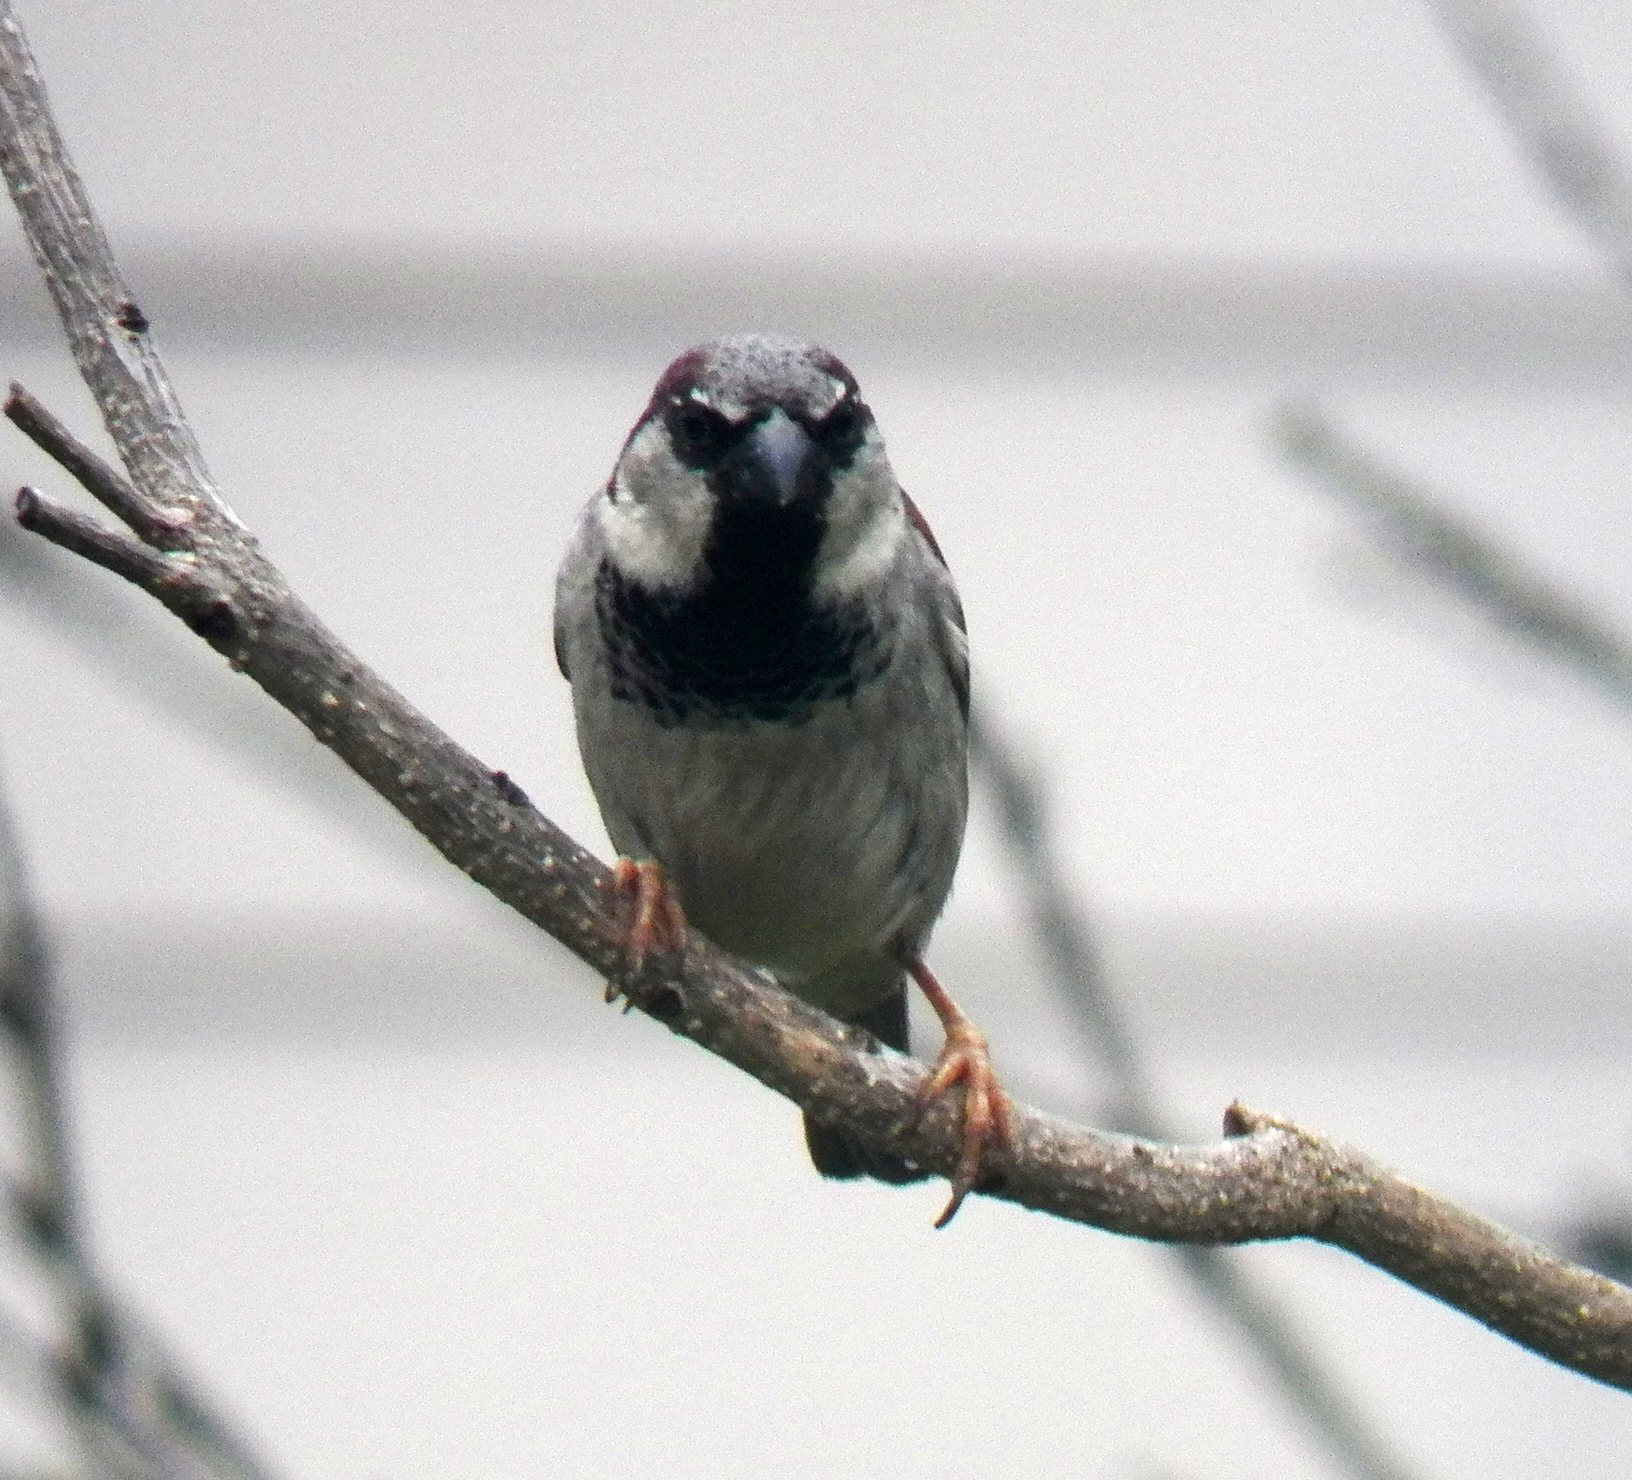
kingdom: Animalia
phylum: Chordata
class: Aves
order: Passeriformes
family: Passeridae
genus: Passer
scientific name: Passer domesticus
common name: House sparrow
